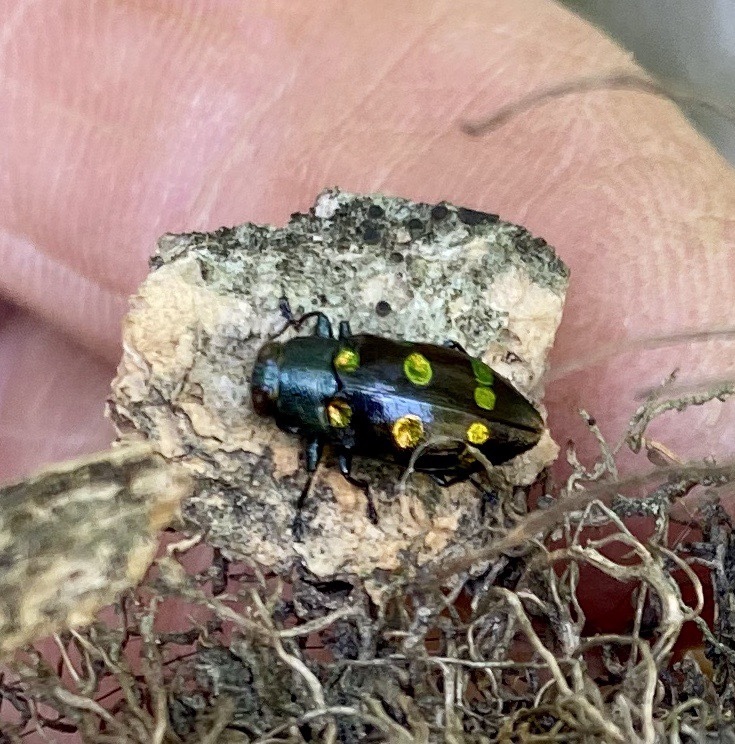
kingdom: Animalia
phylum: Arthropoda
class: Insecta
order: Coleoptera
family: Buprestidae
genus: Chrysobothris
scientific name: Chrysobothris chrysoela
